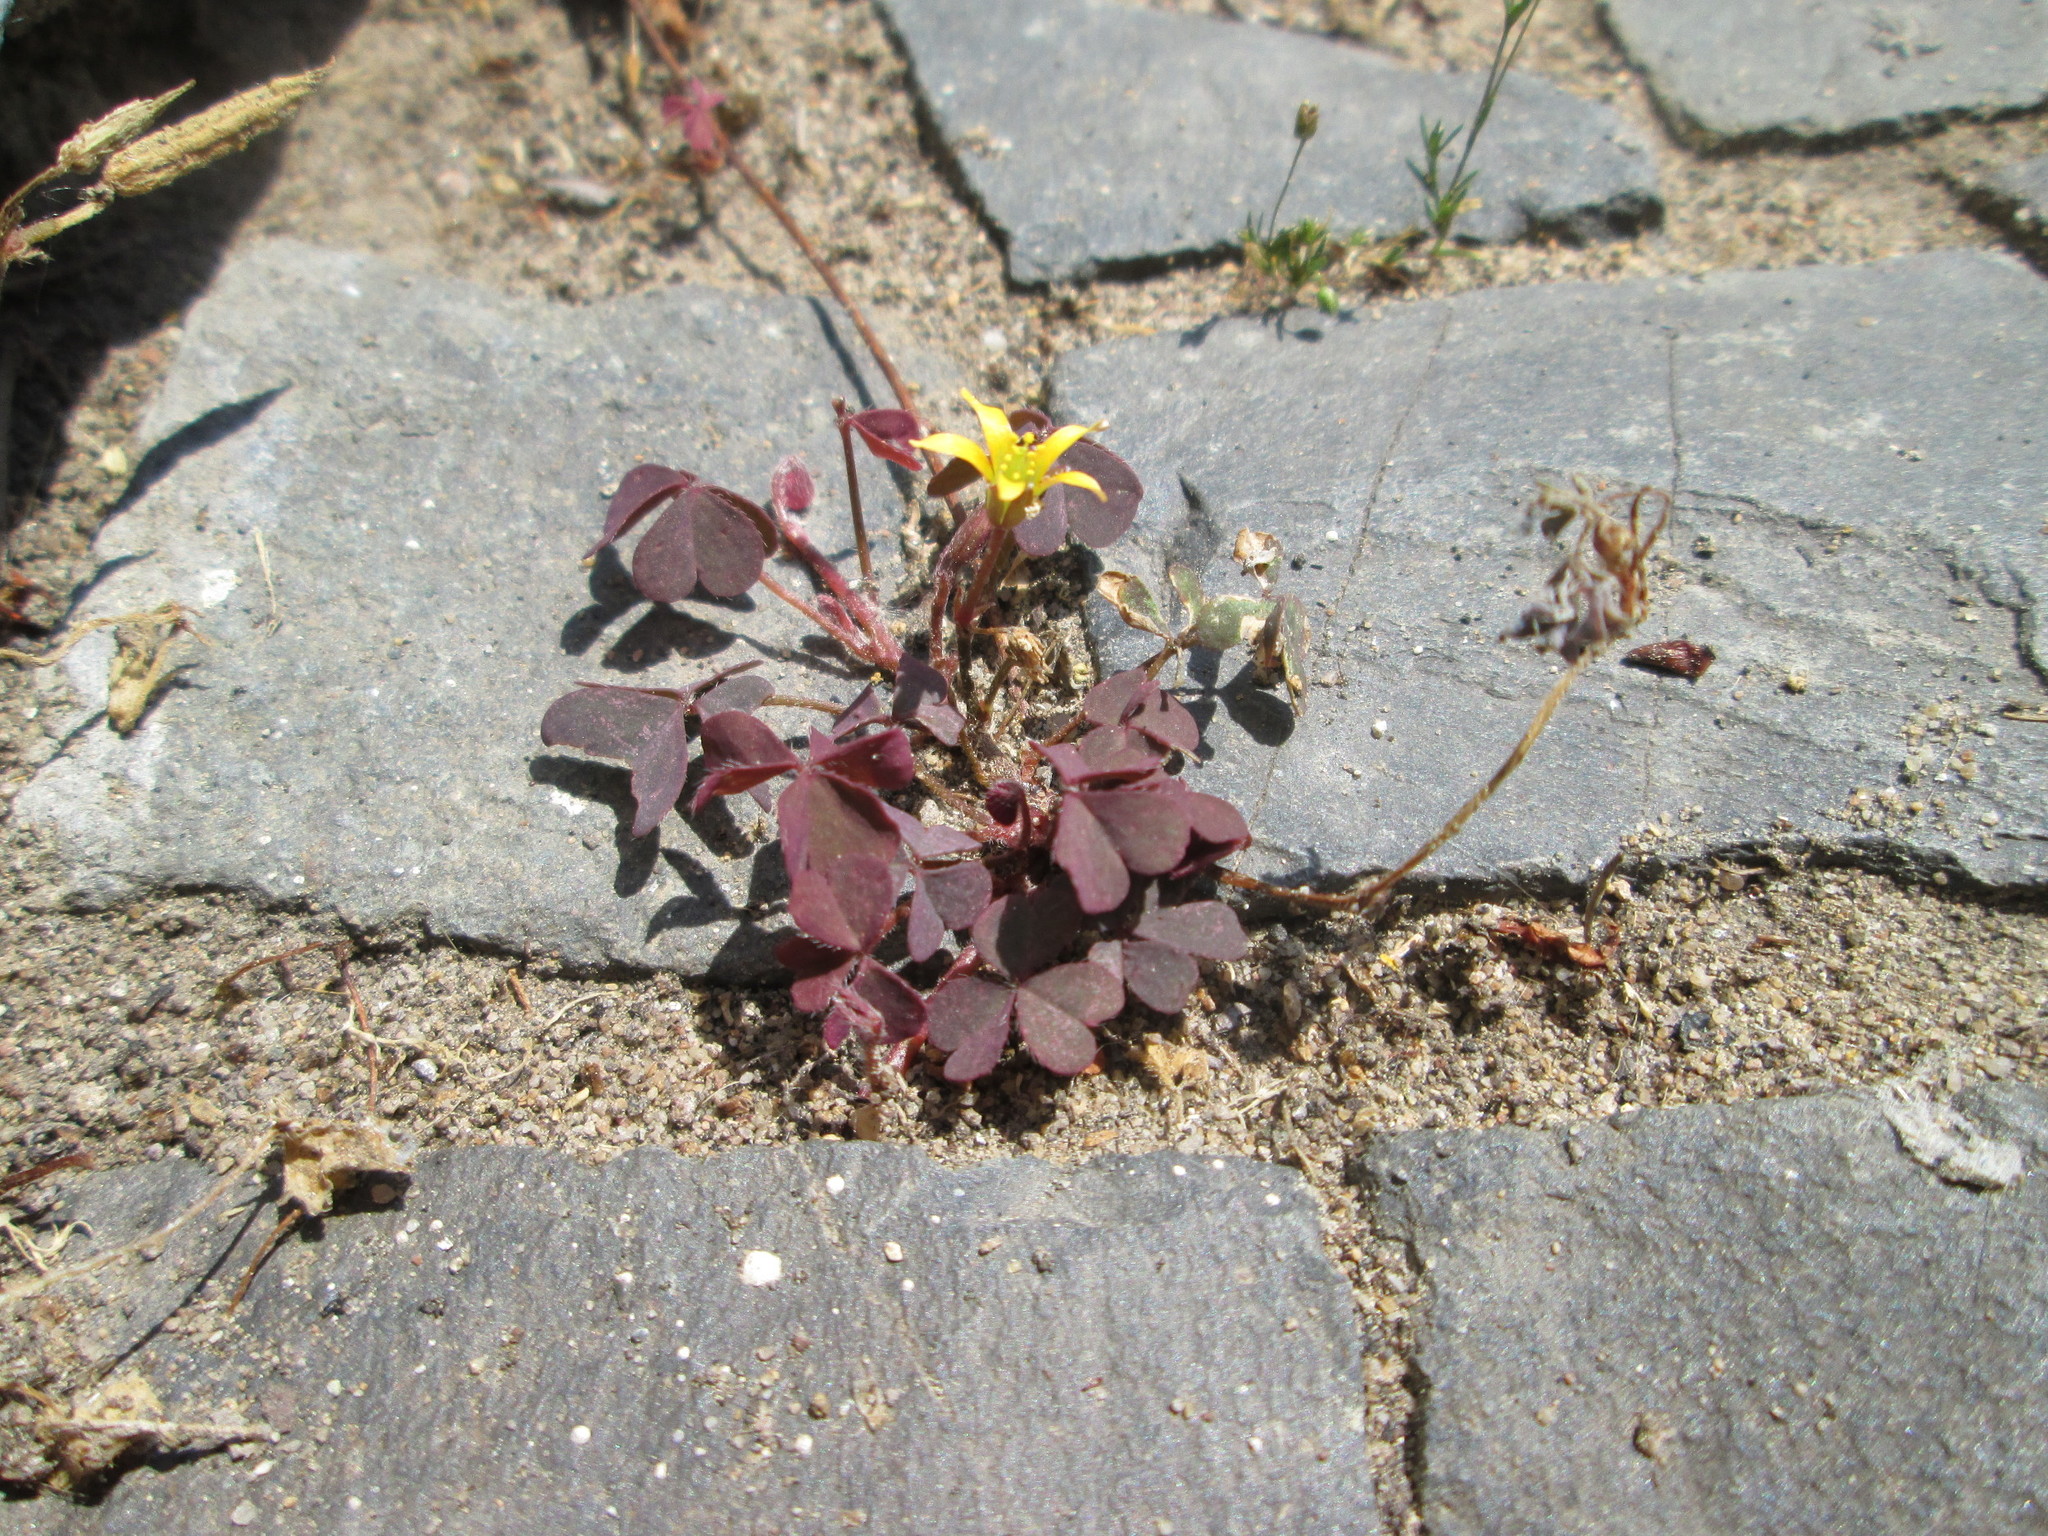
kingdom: Plantae
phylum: Tracheophyta
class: Magnoliopsida
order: Oxalidales
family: Oxalidaceae
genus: Oxalis
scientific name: Oxalis corniculata
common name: Procumbent yellow-sorrel
